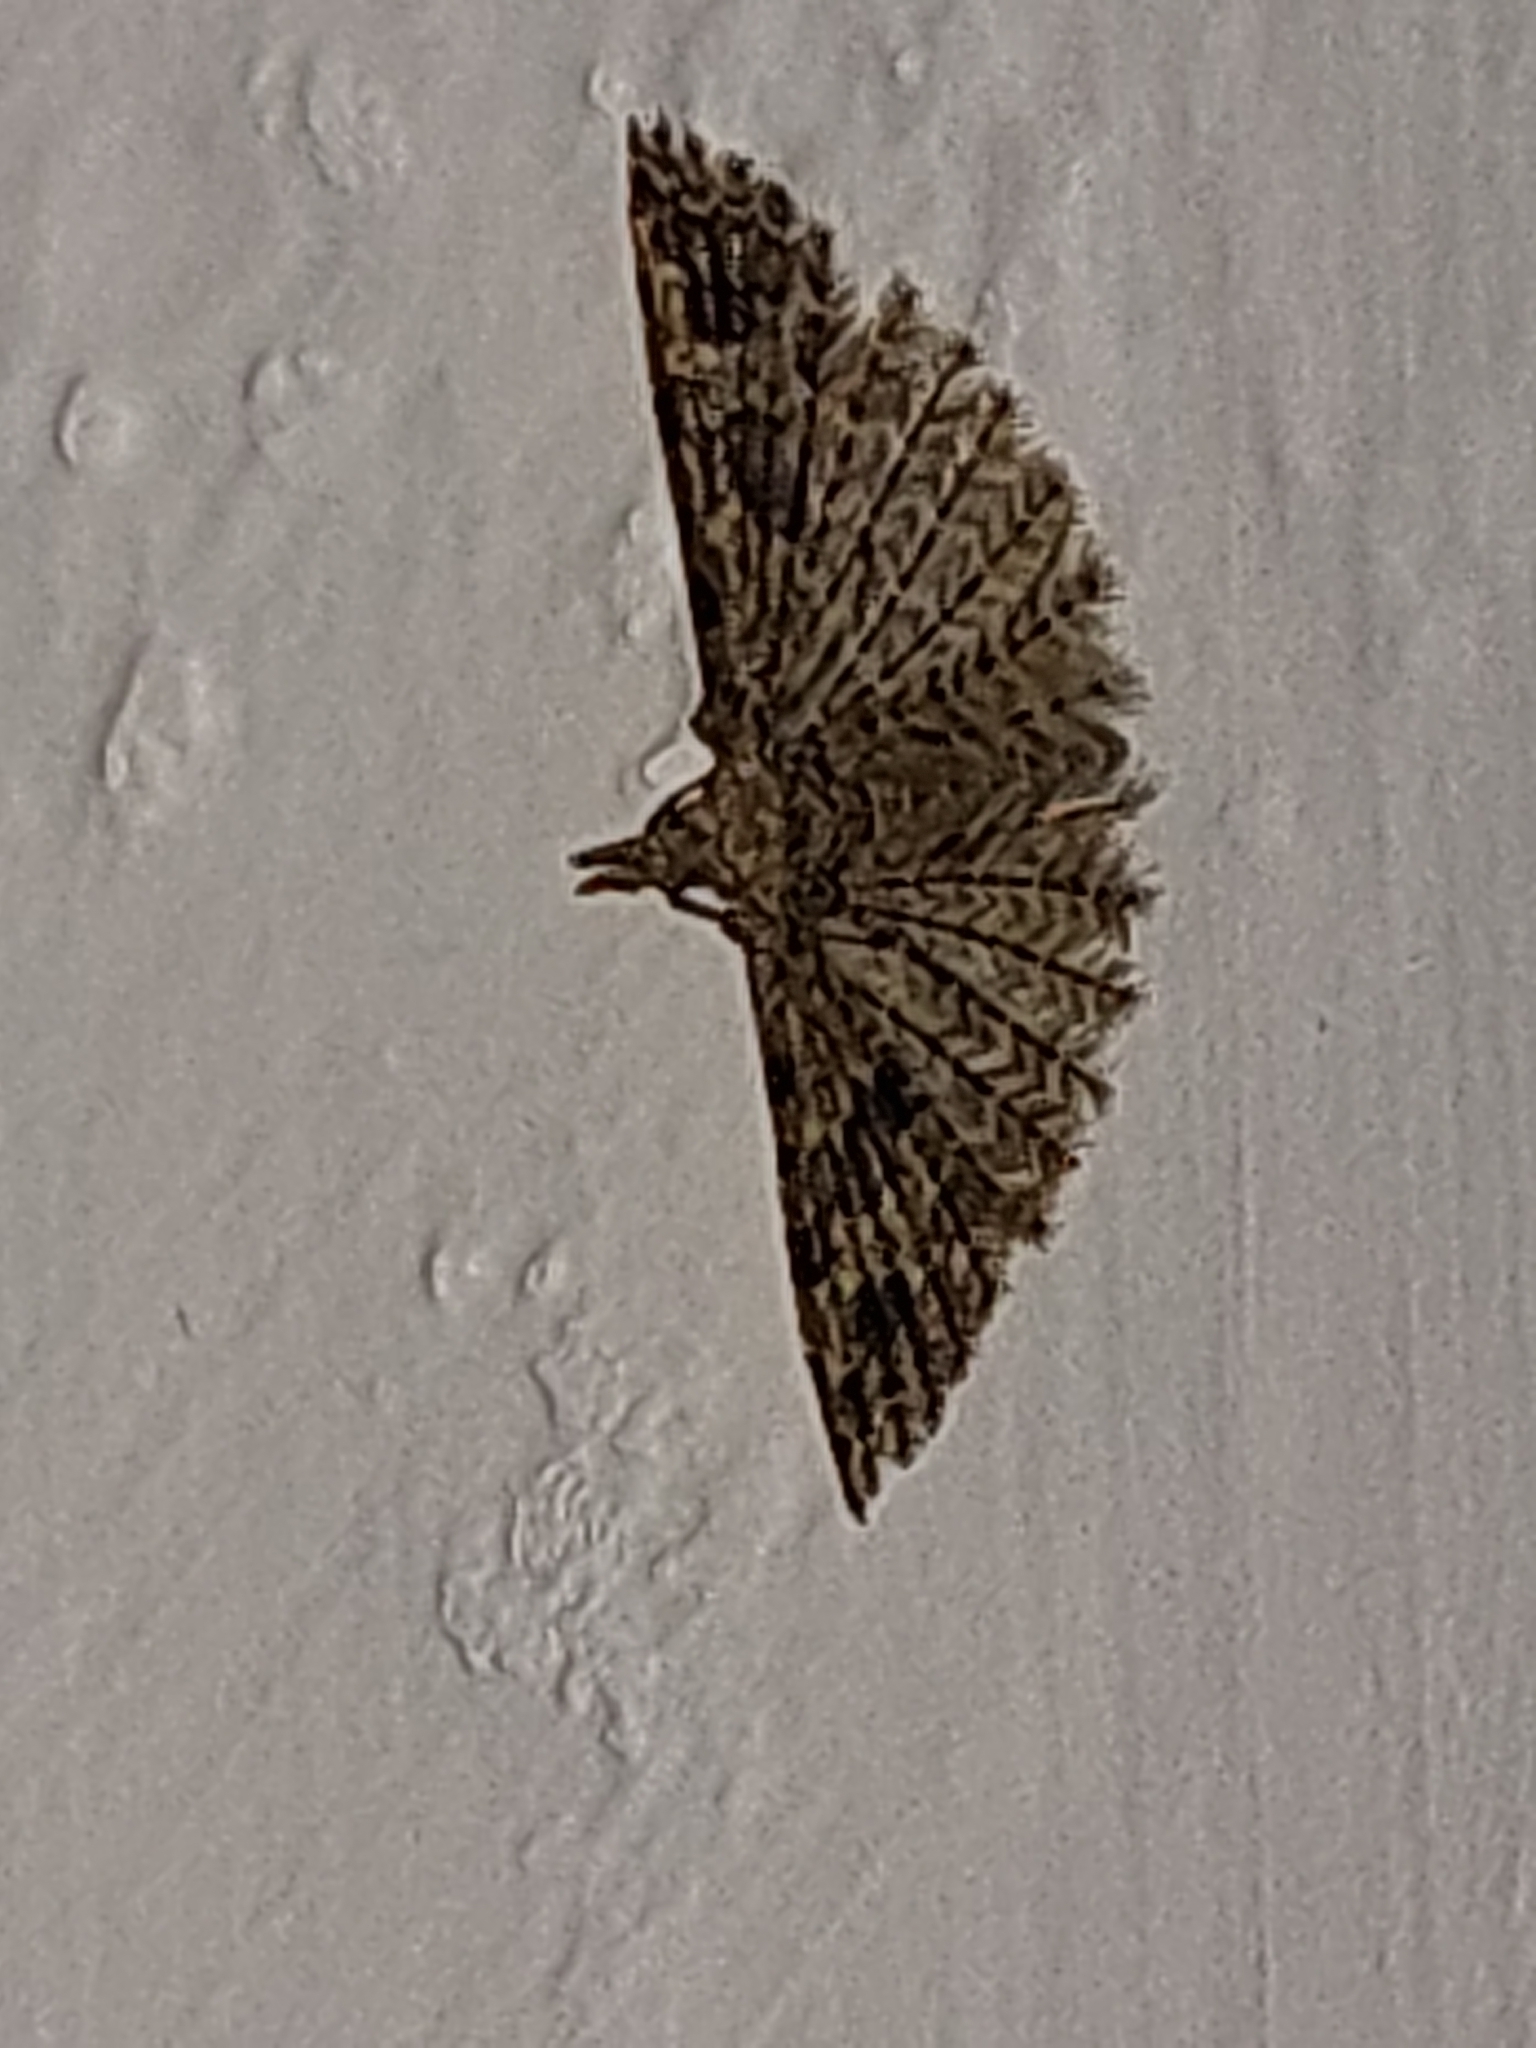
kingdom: Animalia
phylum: Arthropoda
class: Insecta
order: Lepidoptera
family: Alucitidae
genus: Alucita
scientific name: Alucita hexadactyla
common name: Twenty-plume moth
